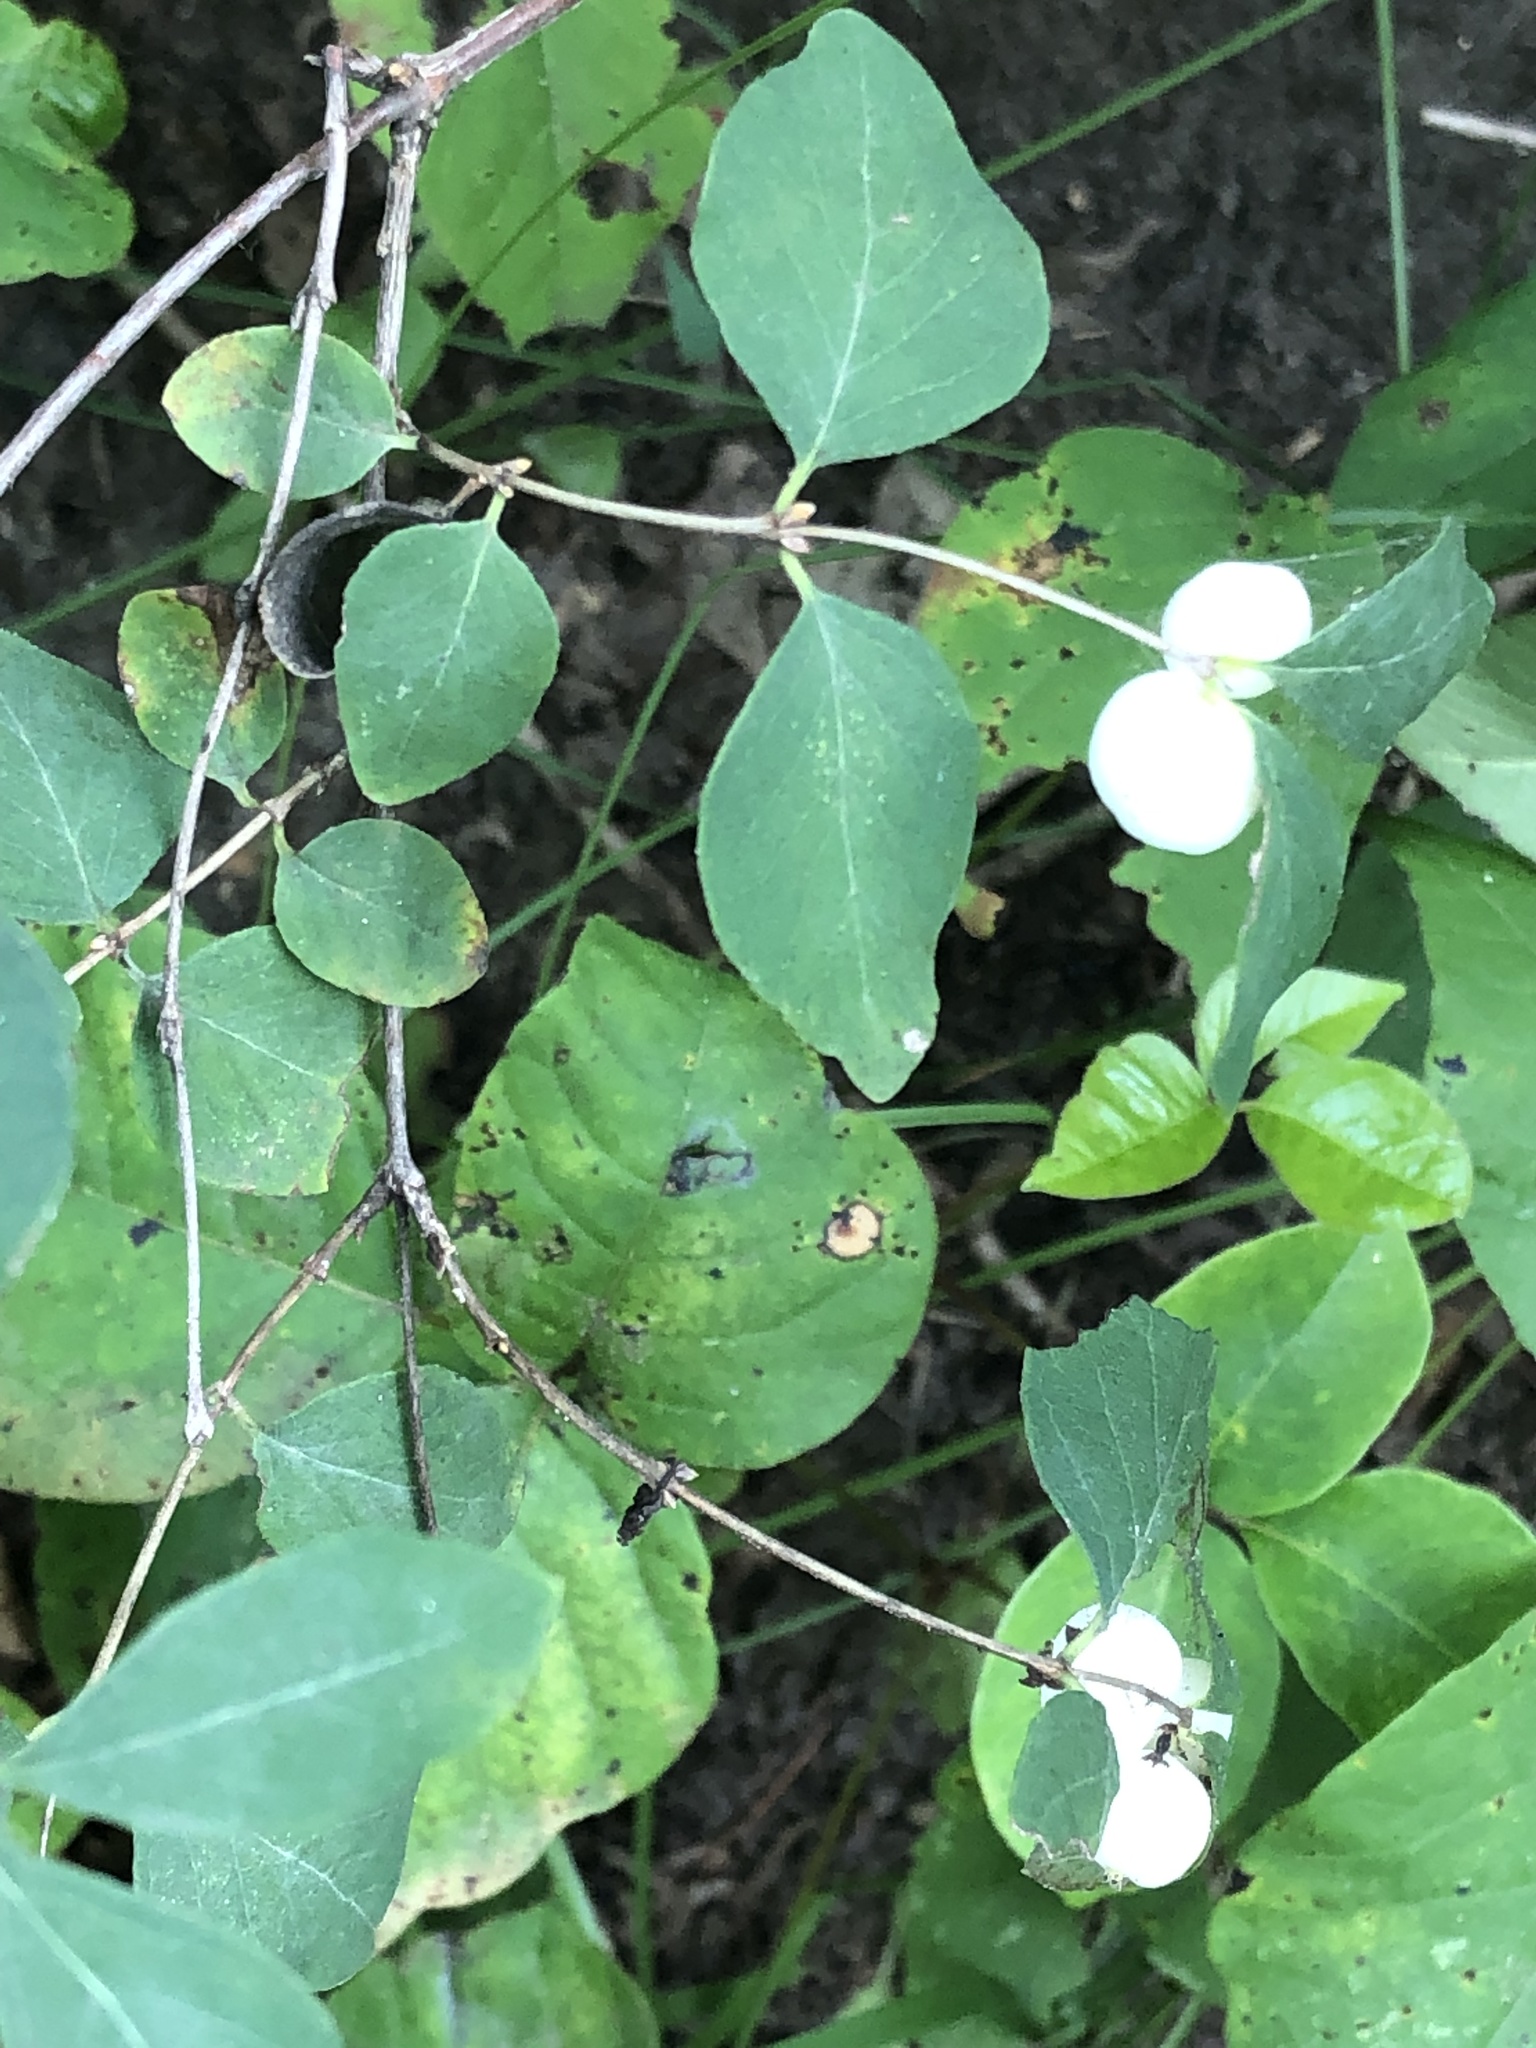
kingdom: Plantae
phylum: Tracheophyta
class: Magnoliopsida
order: Dipsacales
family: Caprifoliaceae
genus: Symphoricarpos
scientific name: Symphoricarpos albus
